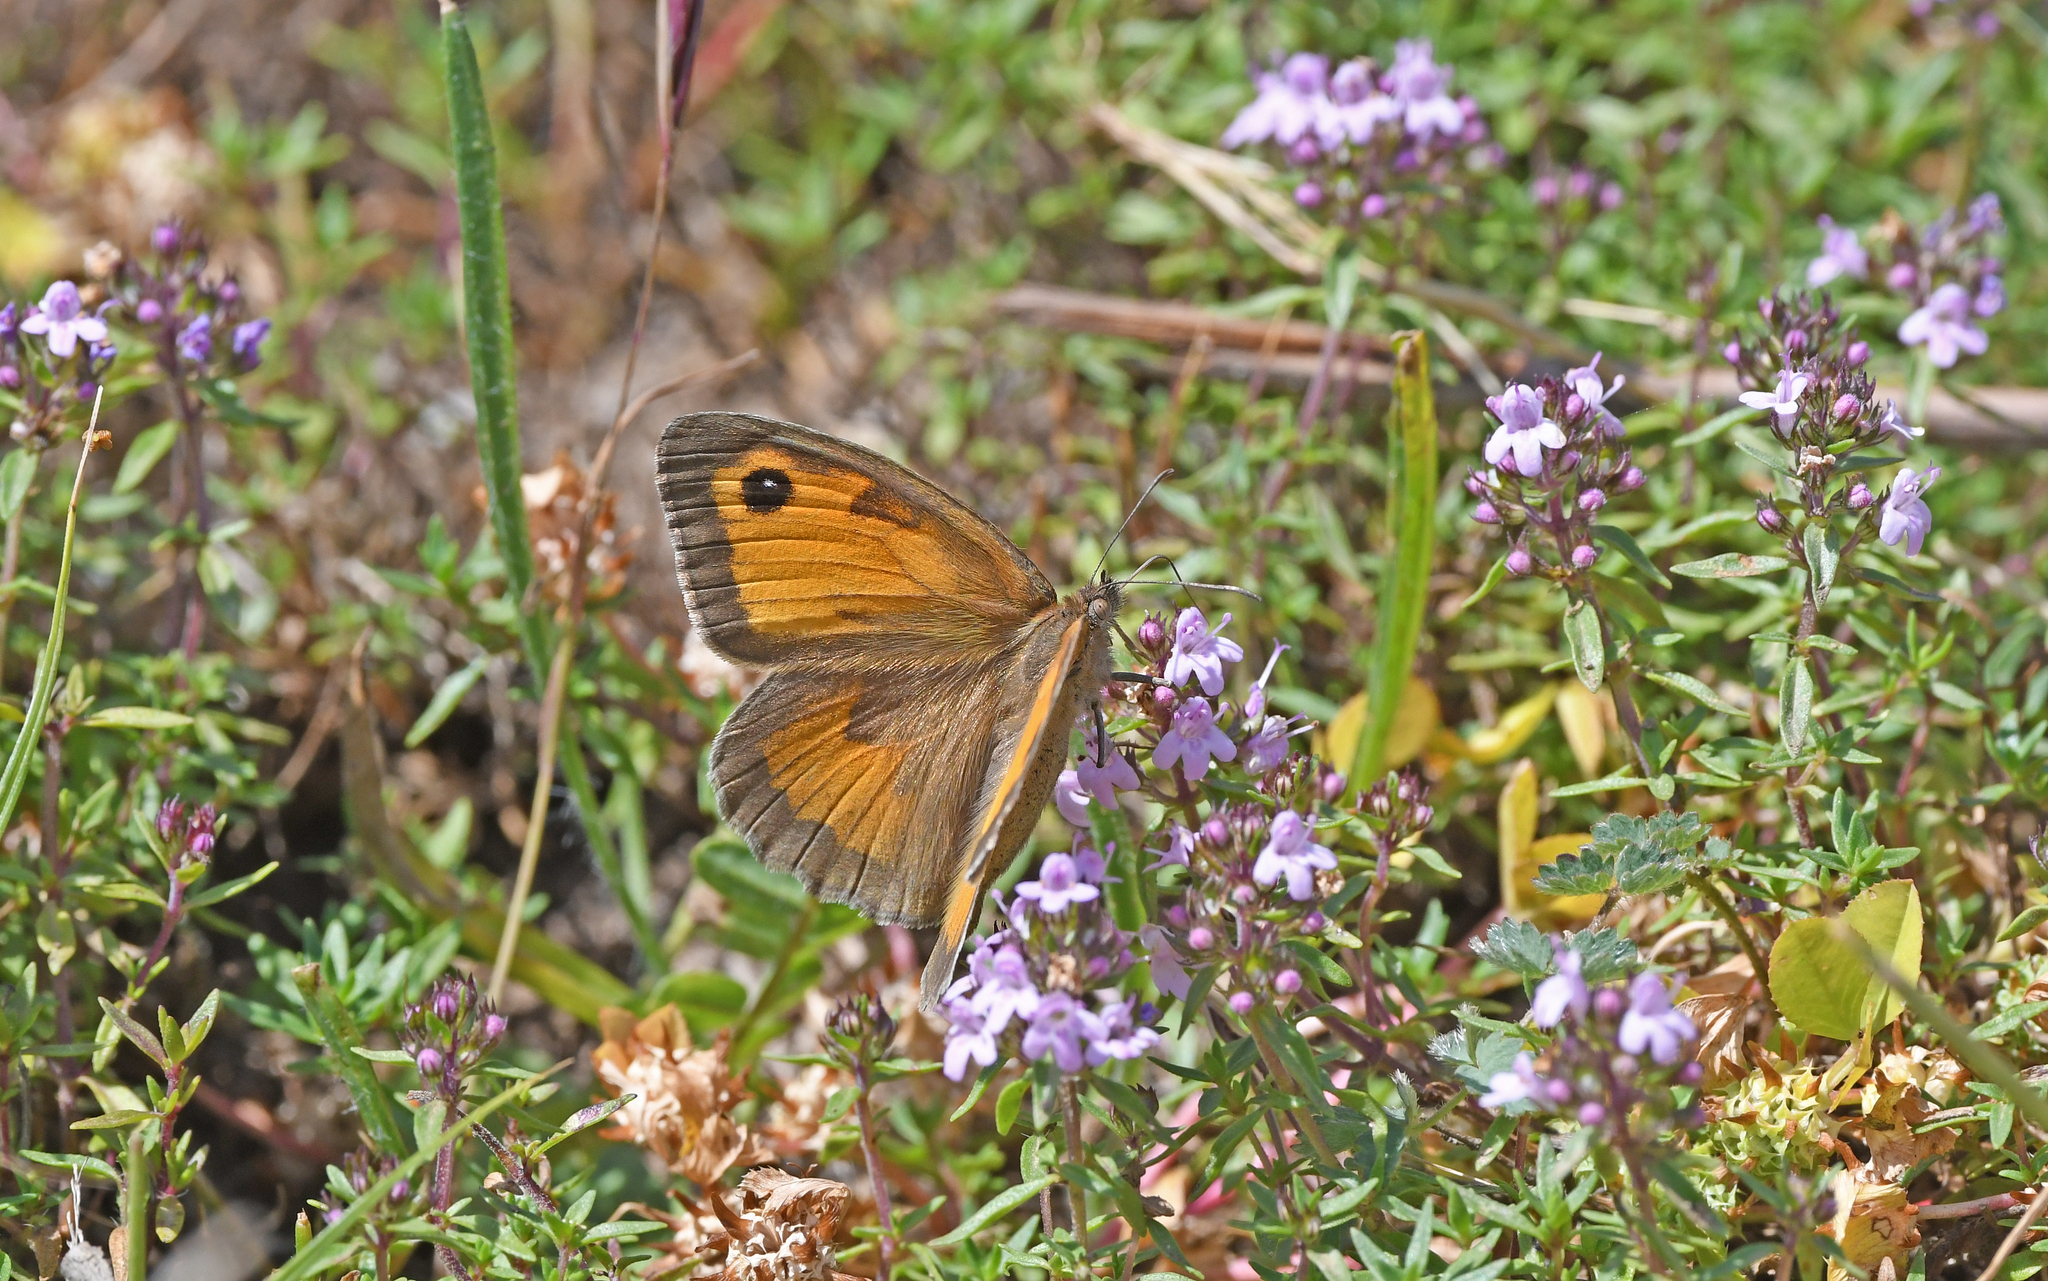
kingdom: Animalia
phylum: Arthropoda
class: Insecta
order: Lepidoptera
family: Nymphalidae
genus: Maniola
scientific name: Maniola nurag
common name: Sardinian meadow brown
